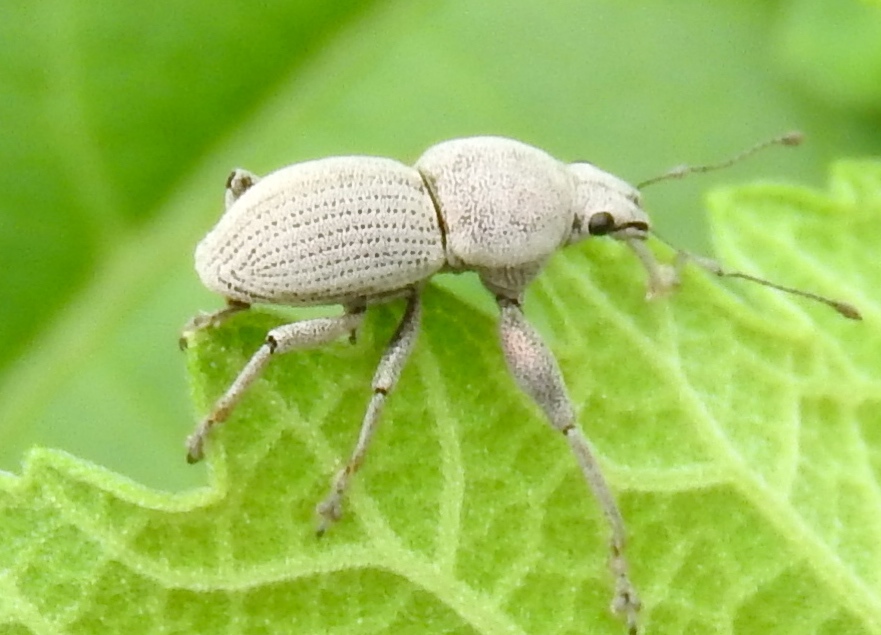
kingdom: Animalia
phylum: Arthropoda
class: Insecta
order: Coleoptera
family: Curculionidae
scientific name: Curculionidae
